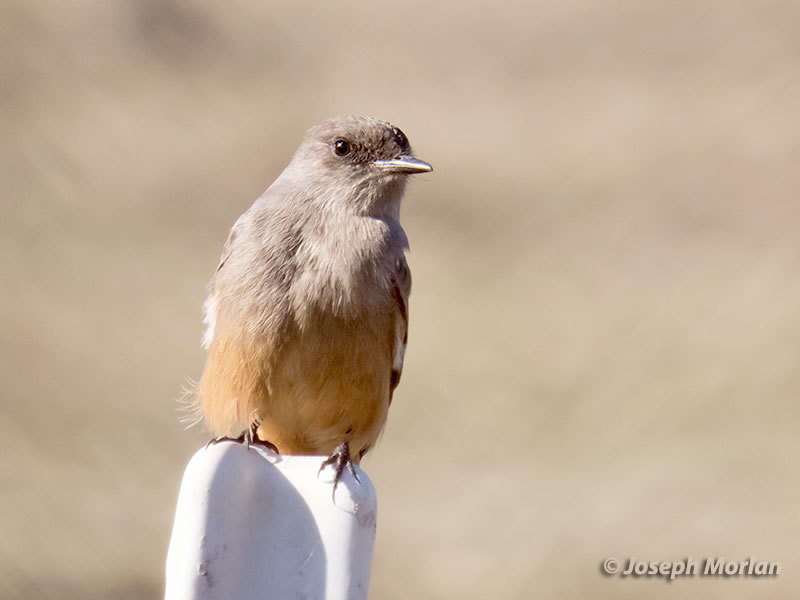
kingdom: Animalia
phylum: Chordata
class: Aves
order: Passeriformes
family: Tyrannidae
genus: Sayornis
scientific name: Sayornis saya
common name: Say's phoebe
